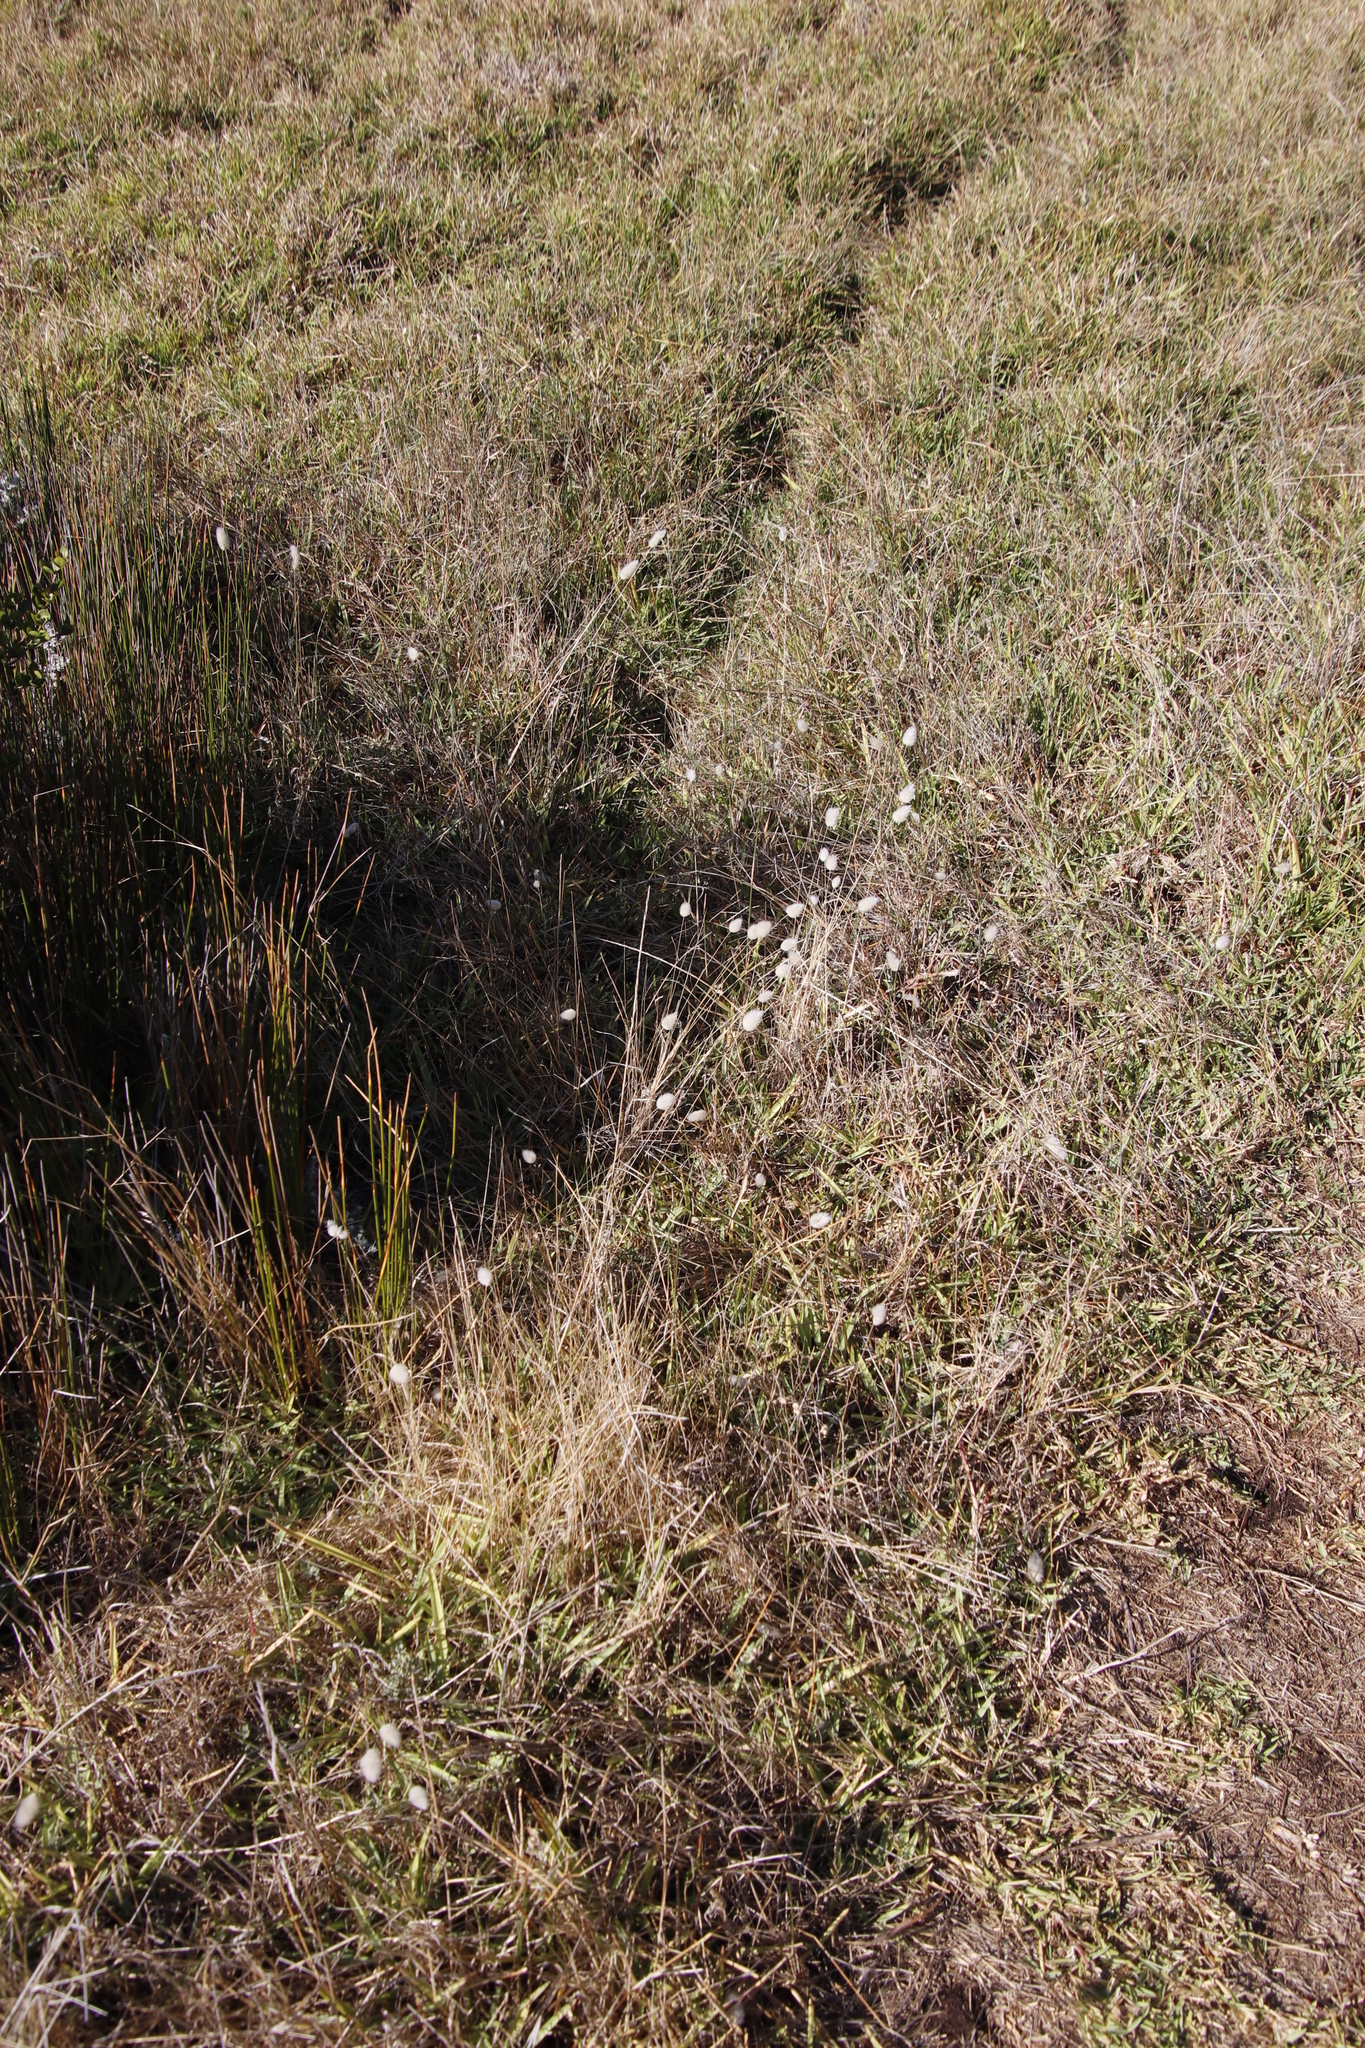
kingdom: Plantae
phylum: Tracheophyta
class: Liliopsida
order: Poales
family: Poaceae
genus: Lagurus
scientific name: Lagurus ovatus
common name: Hare's-tail
